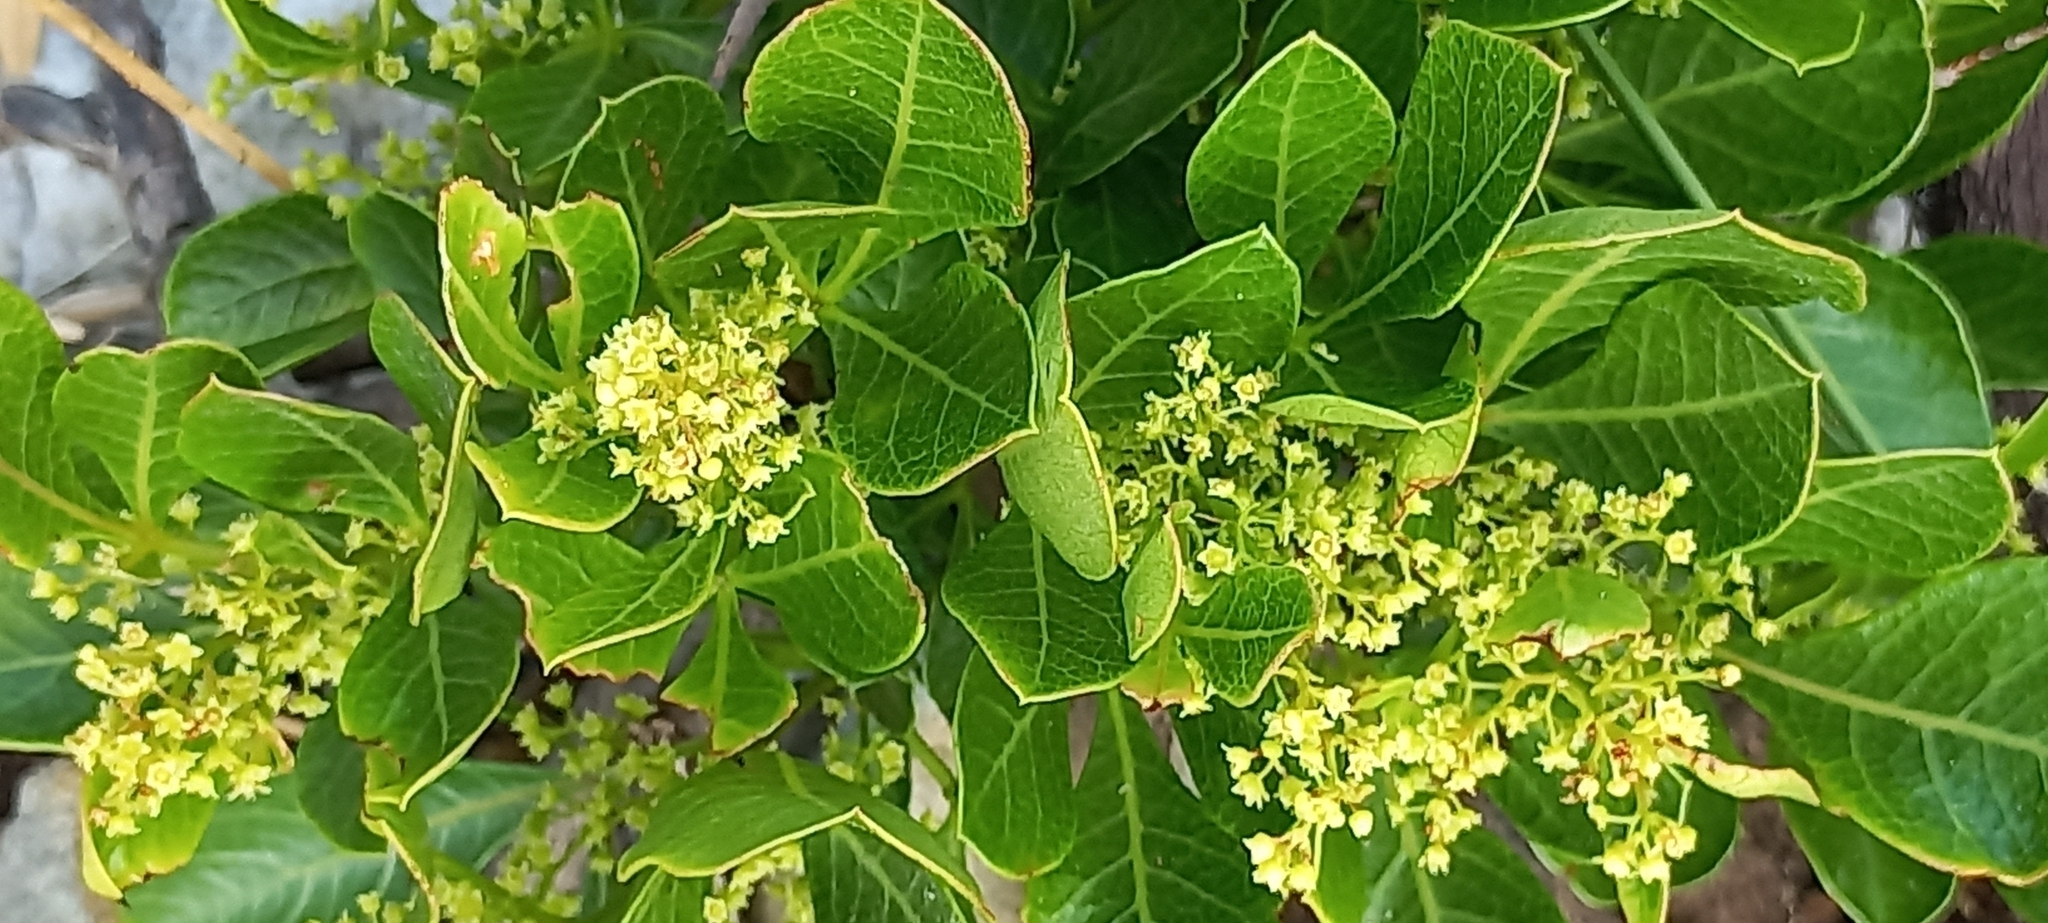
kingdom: Plantae
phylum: Tracheophyta
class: Magnoliopsida
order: Sapindales
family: Anacardiaceae
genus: Searsia
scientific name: Searsia laevigata
